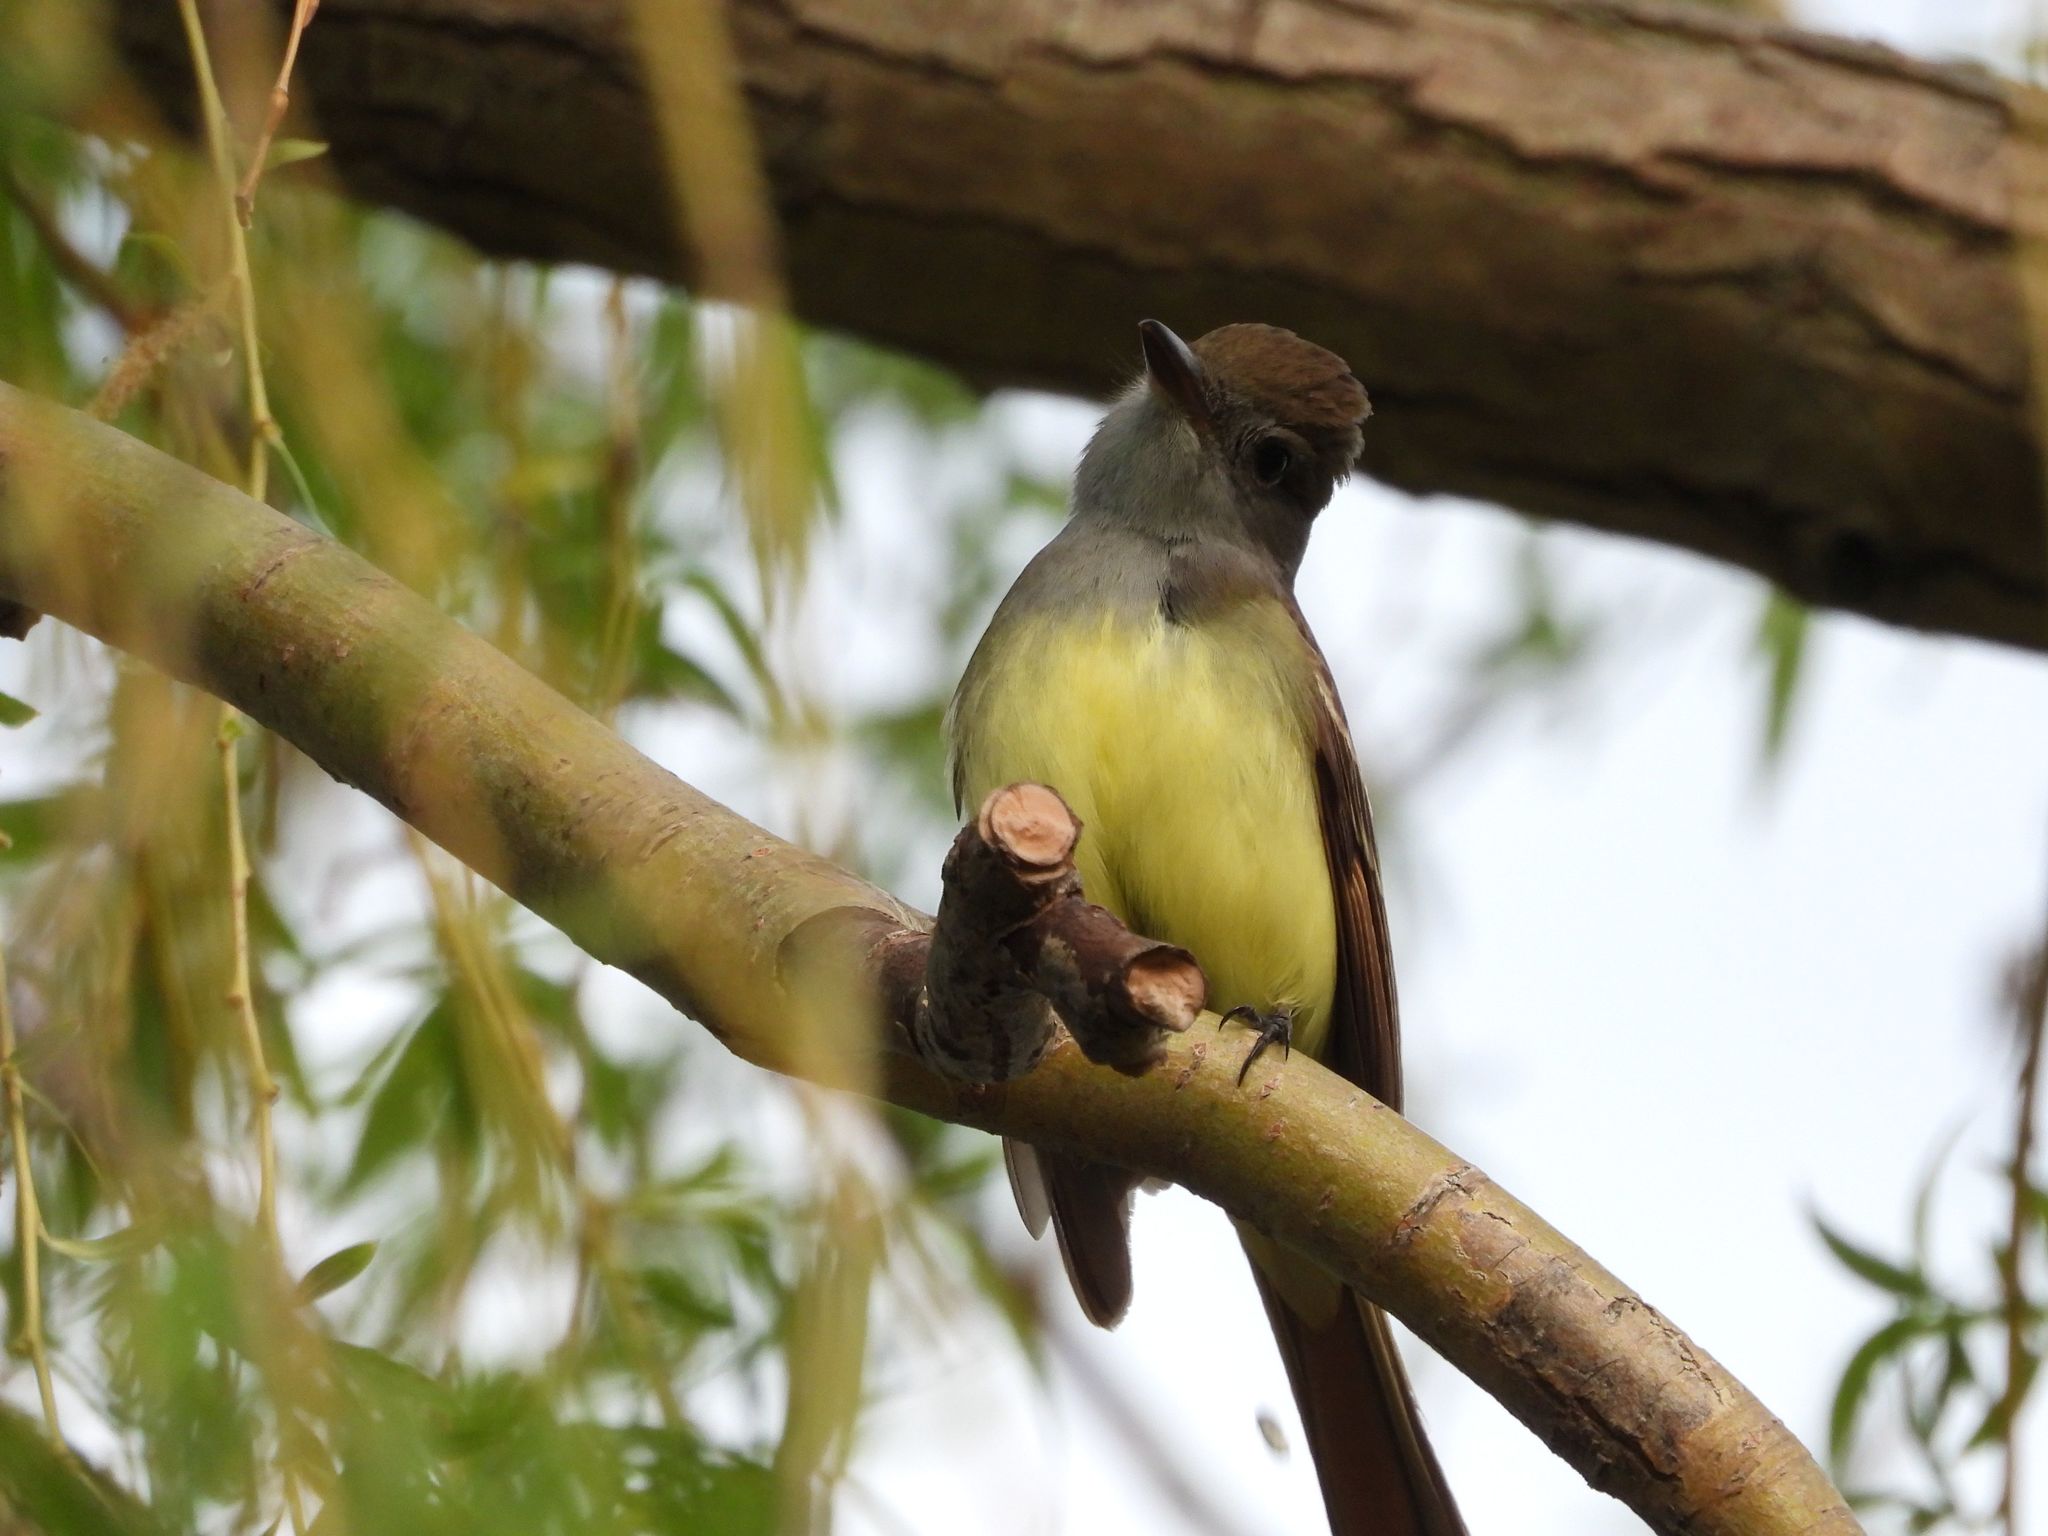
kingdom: Animalia
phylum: Chordata
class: Aves
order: Passeriformes
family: Tyrannidae
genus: Myiarchus
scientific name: Myiarchus crinitus
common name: Great crested flycatcher
